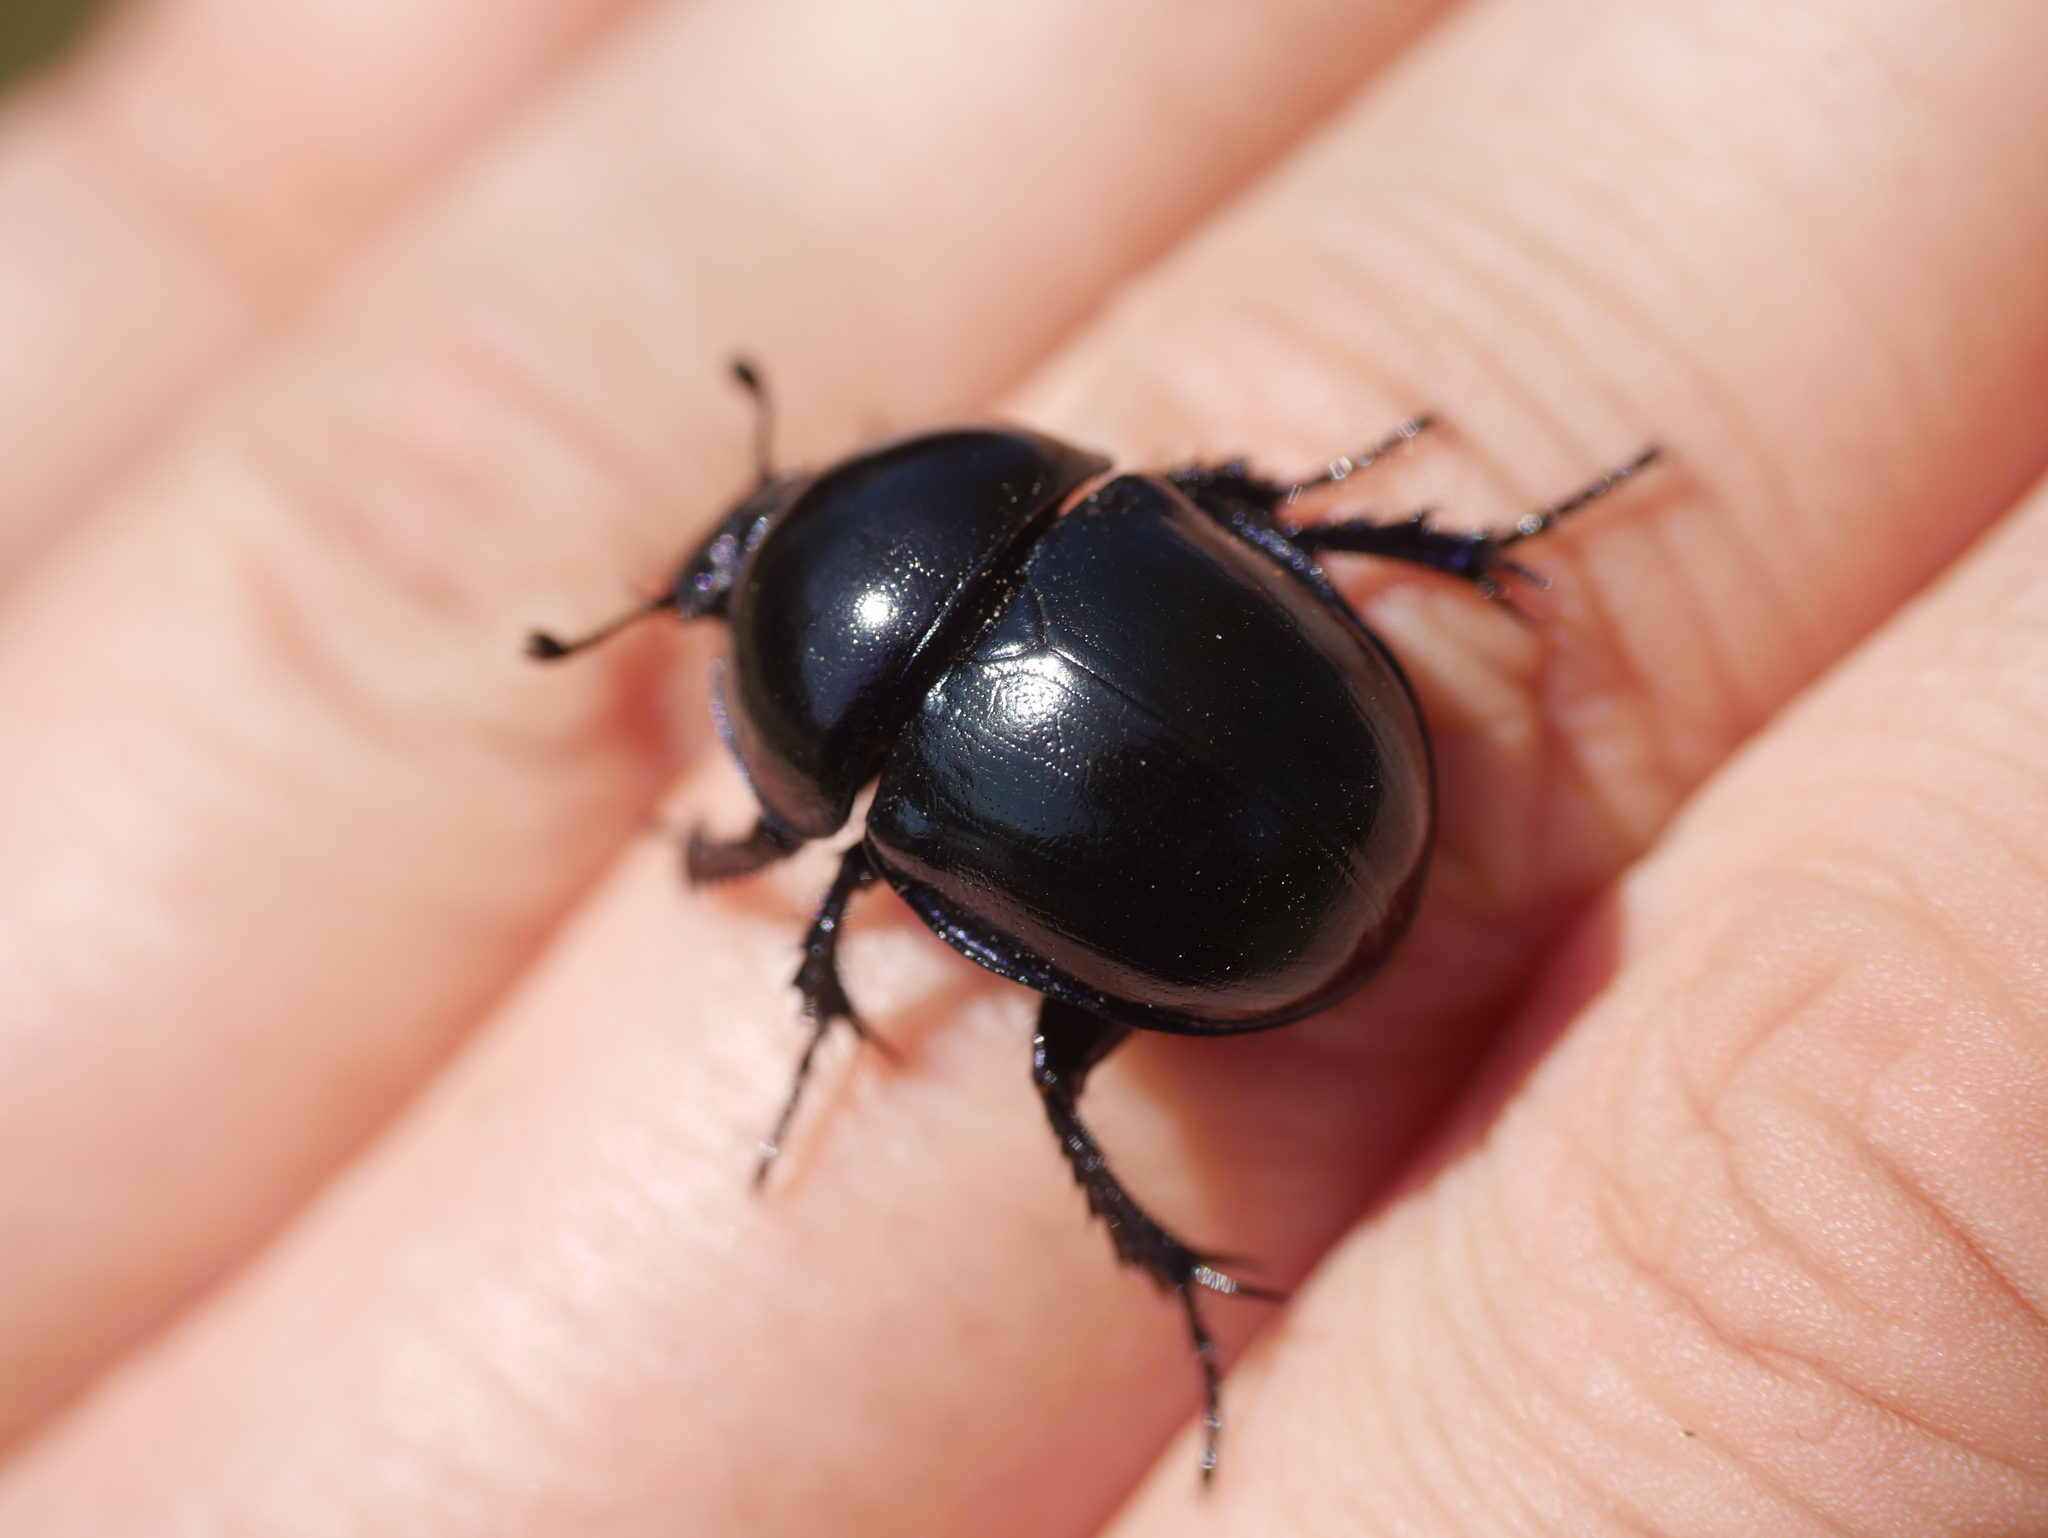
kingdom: Animalia
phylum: Arthropoda
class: Insecta
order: Coleoptera
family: Geotrupidae
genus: Trypocopris
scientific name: Trypocopris vernalis
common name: Spring dumbledor
